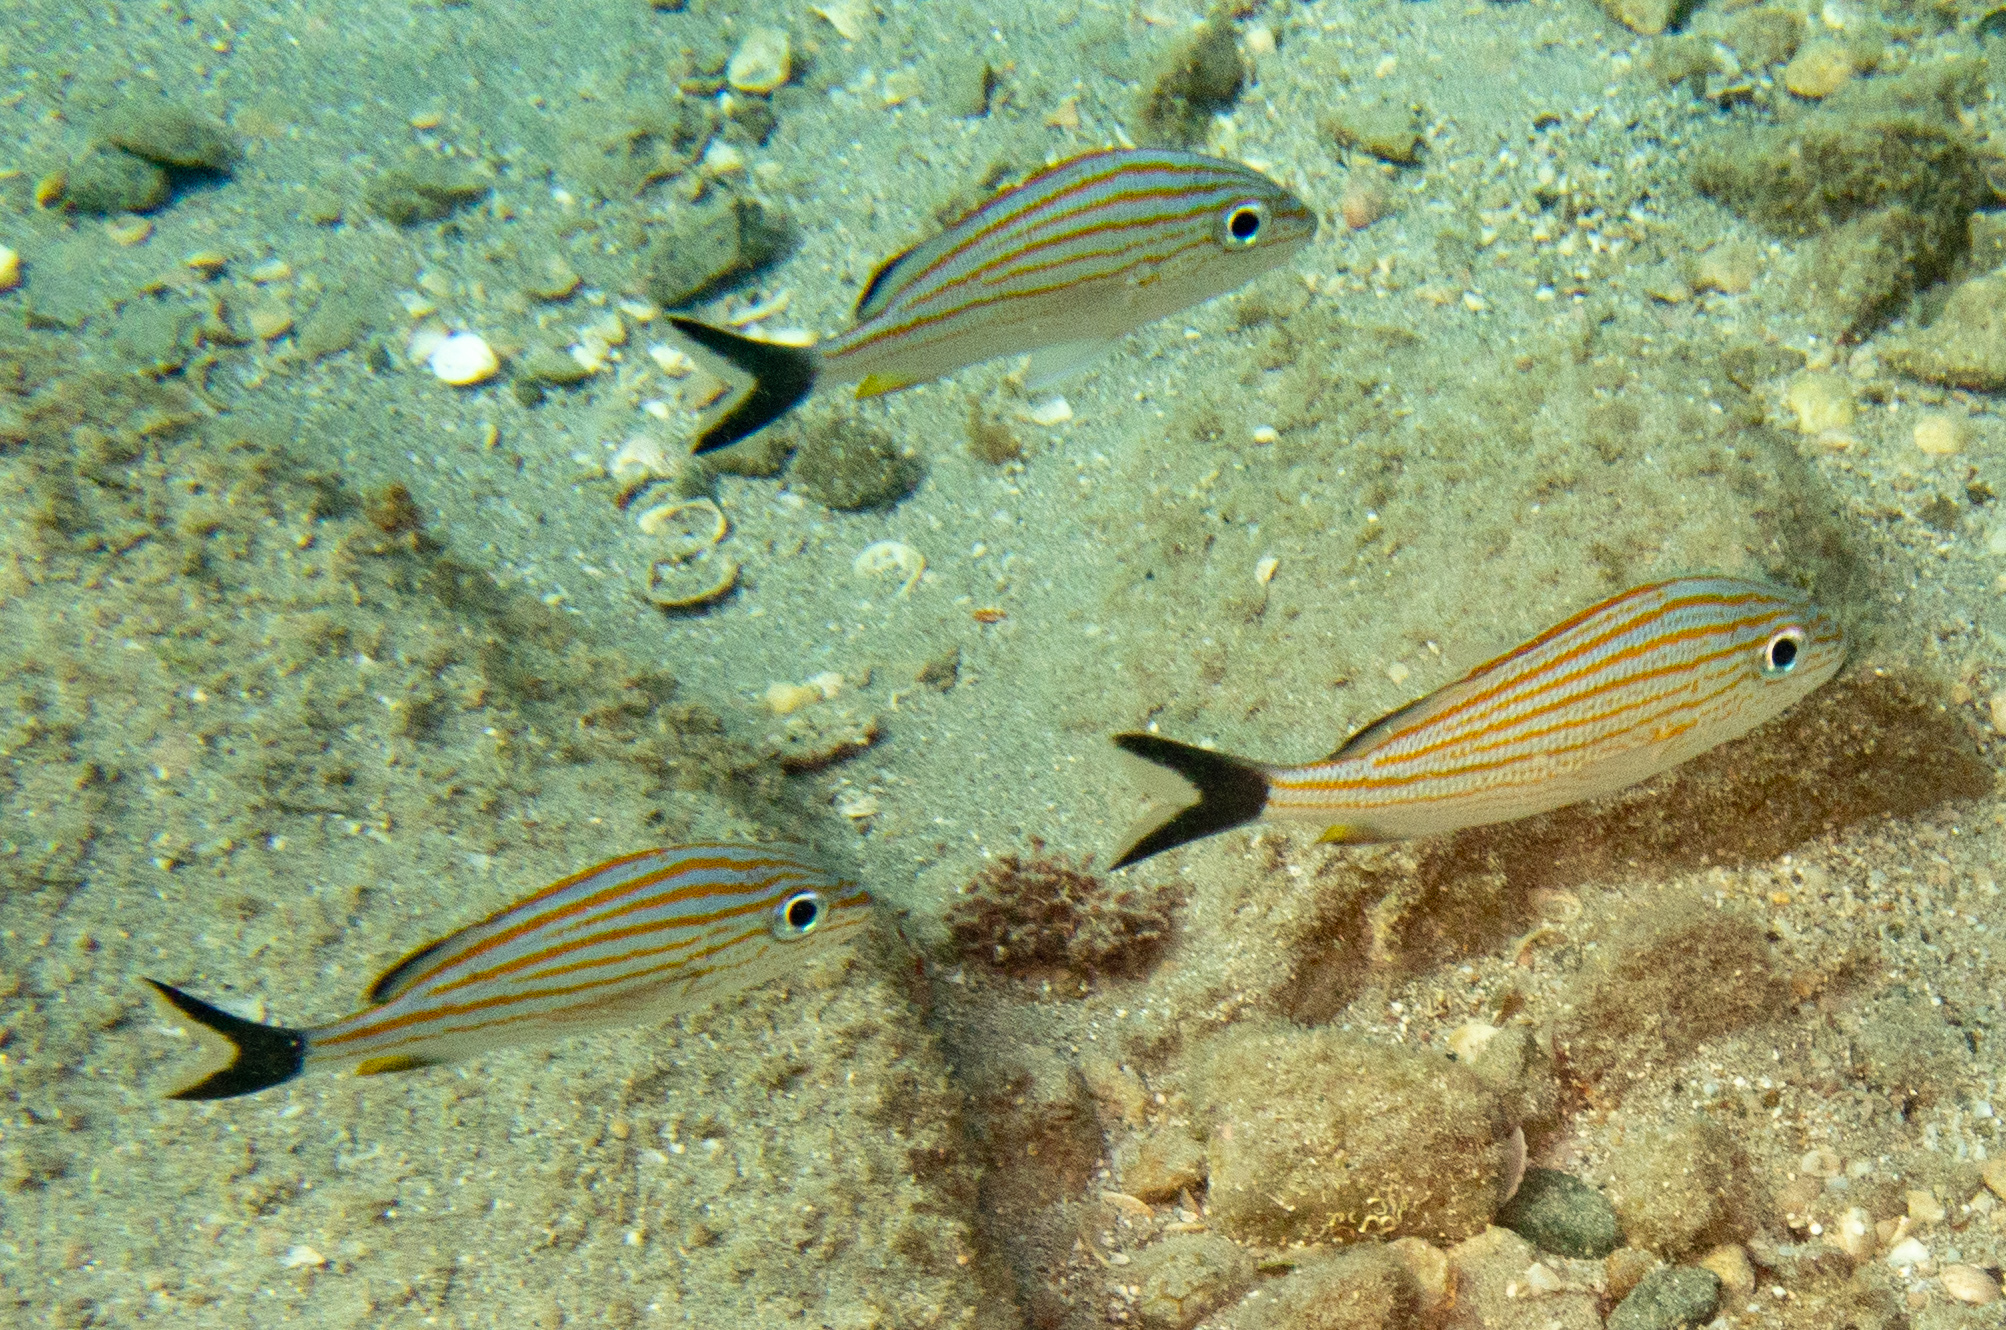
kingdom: Animalia
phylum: Chordata
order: Perciformes
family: Haemulidae
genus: Haemulon
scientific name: Haemulon carbonarium
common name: Caesar grunt
